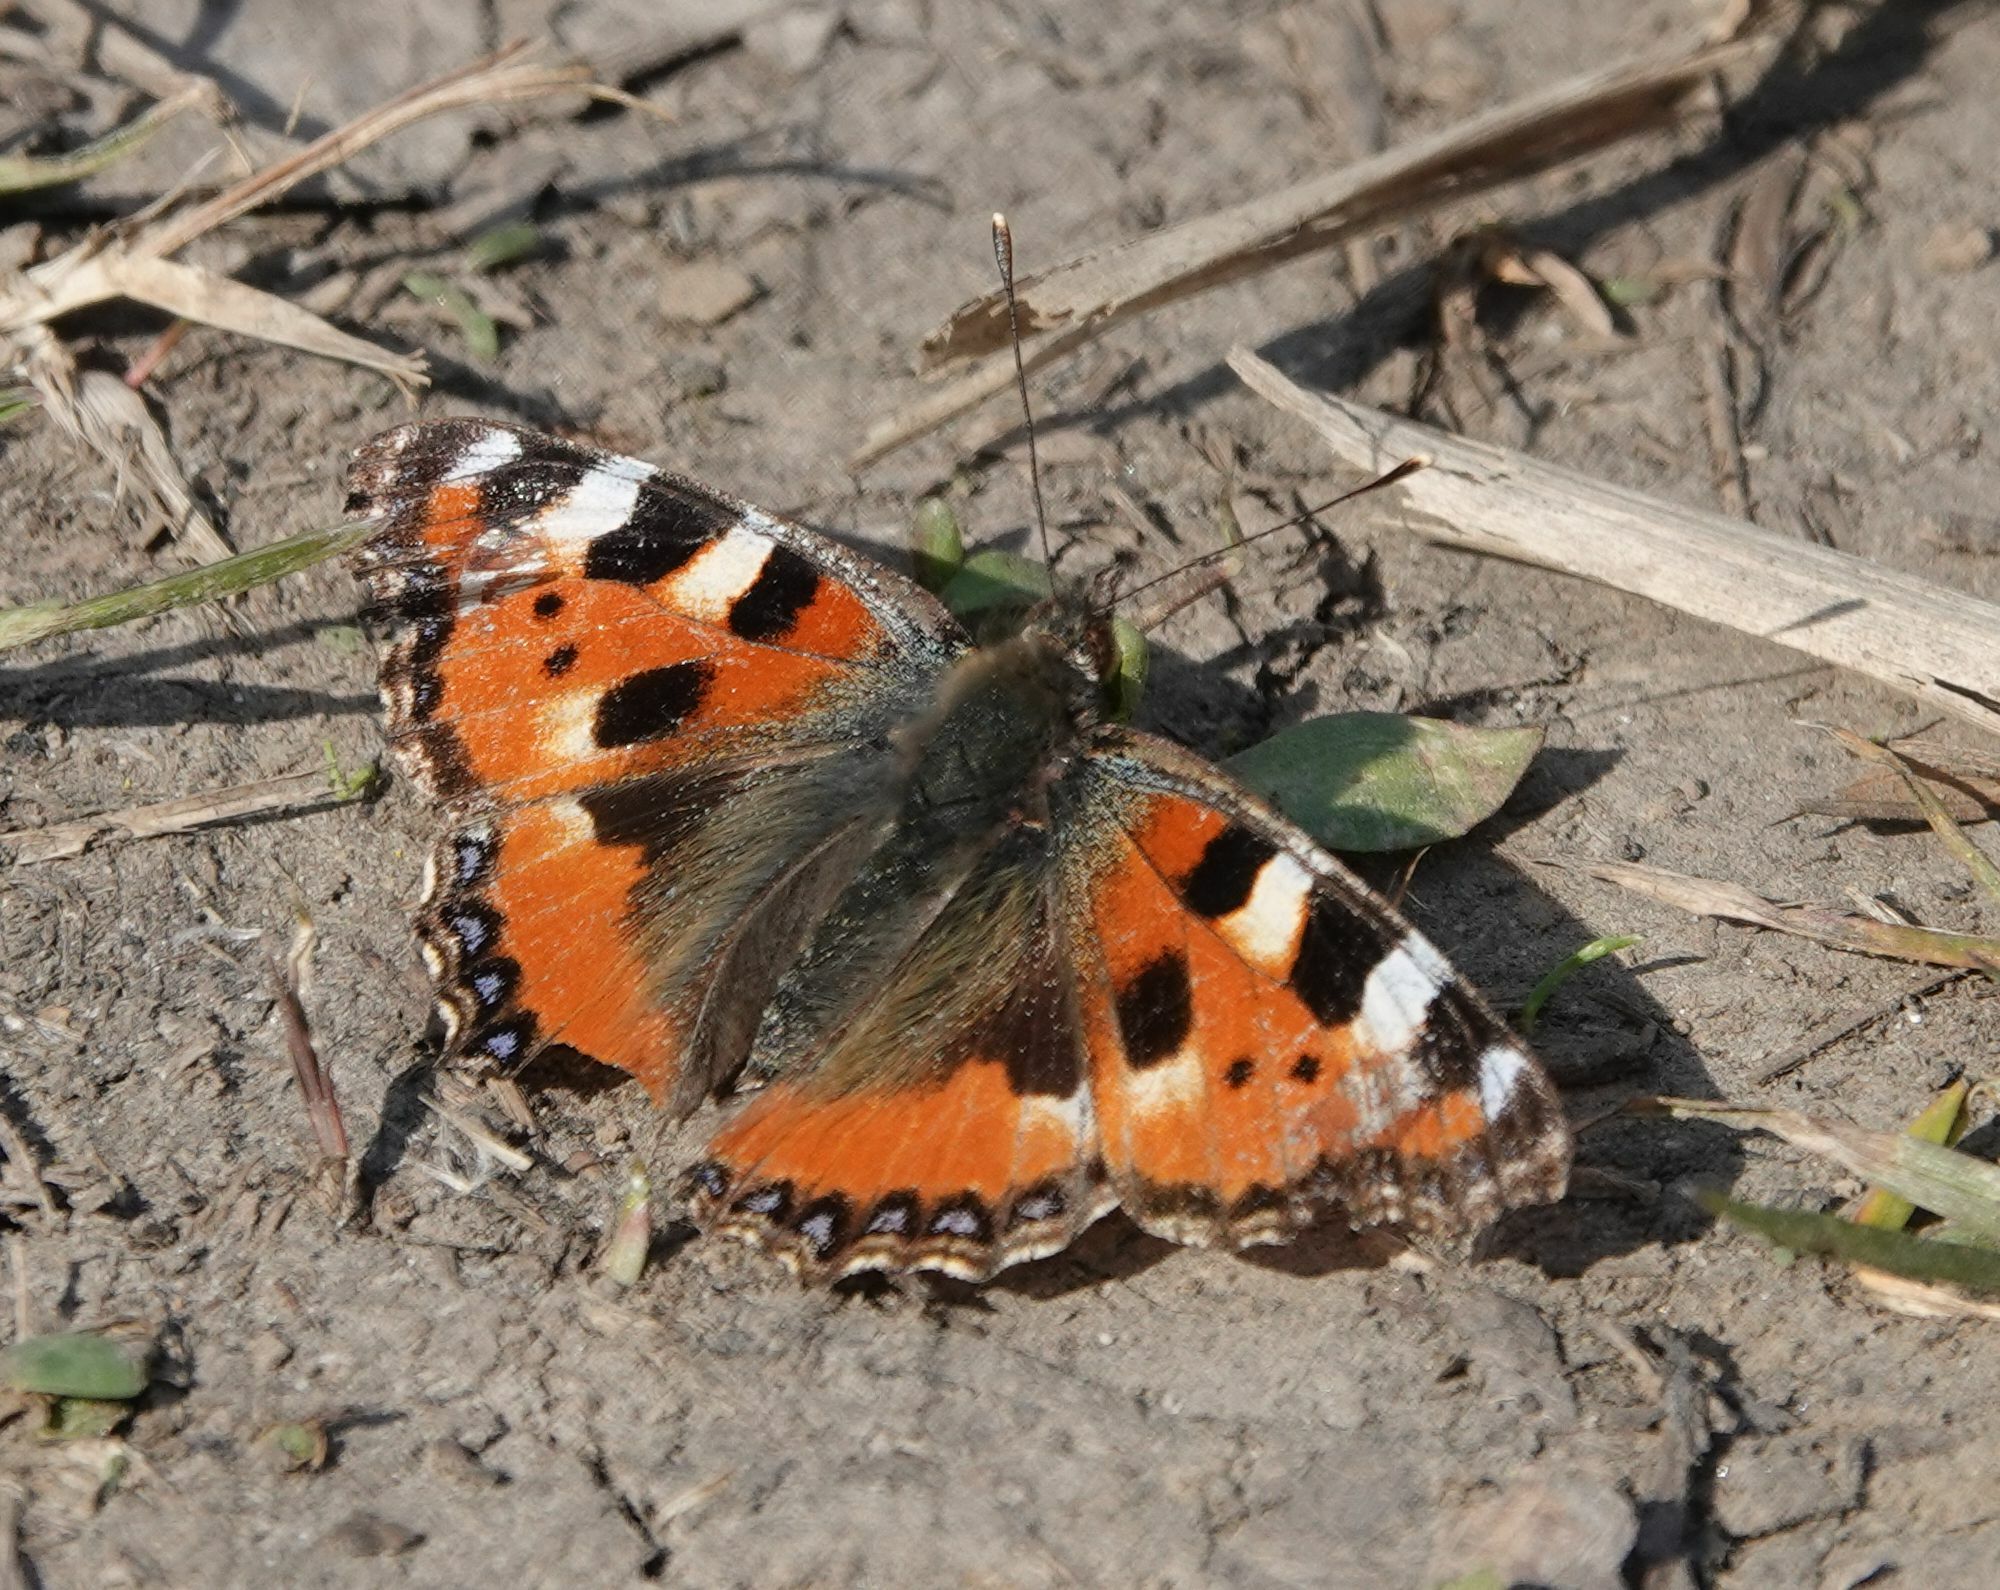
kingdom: Animalia
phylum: Arthropoda
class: Insecta
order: Lepidoptera
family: Nymphalidae
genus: Aglais
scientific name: Aglais urticae
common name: Small tortoiseshell
